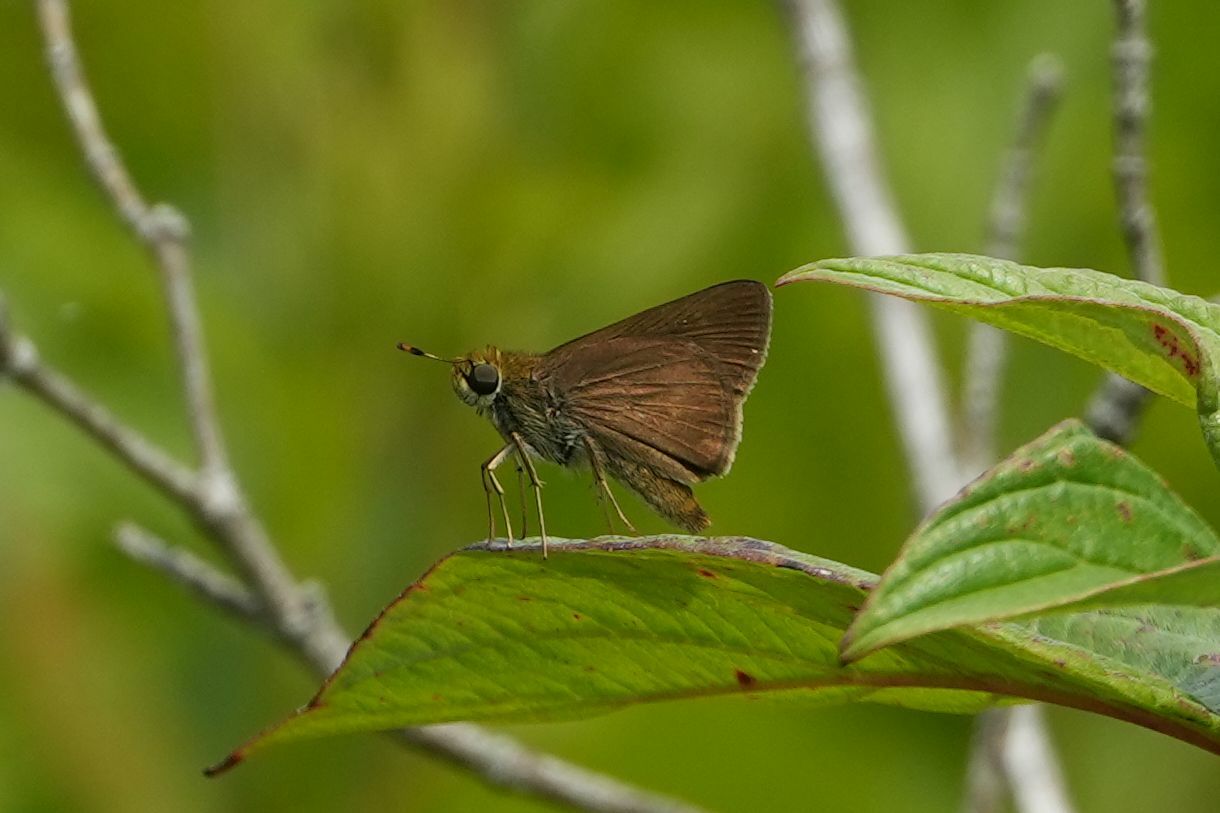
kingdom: Animalia
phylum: Arthropoda
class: Insecta
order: Lepidoptera
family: Hesperiidae
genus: Euphyes
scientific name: Euphyes vestris
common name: Dun skipper
